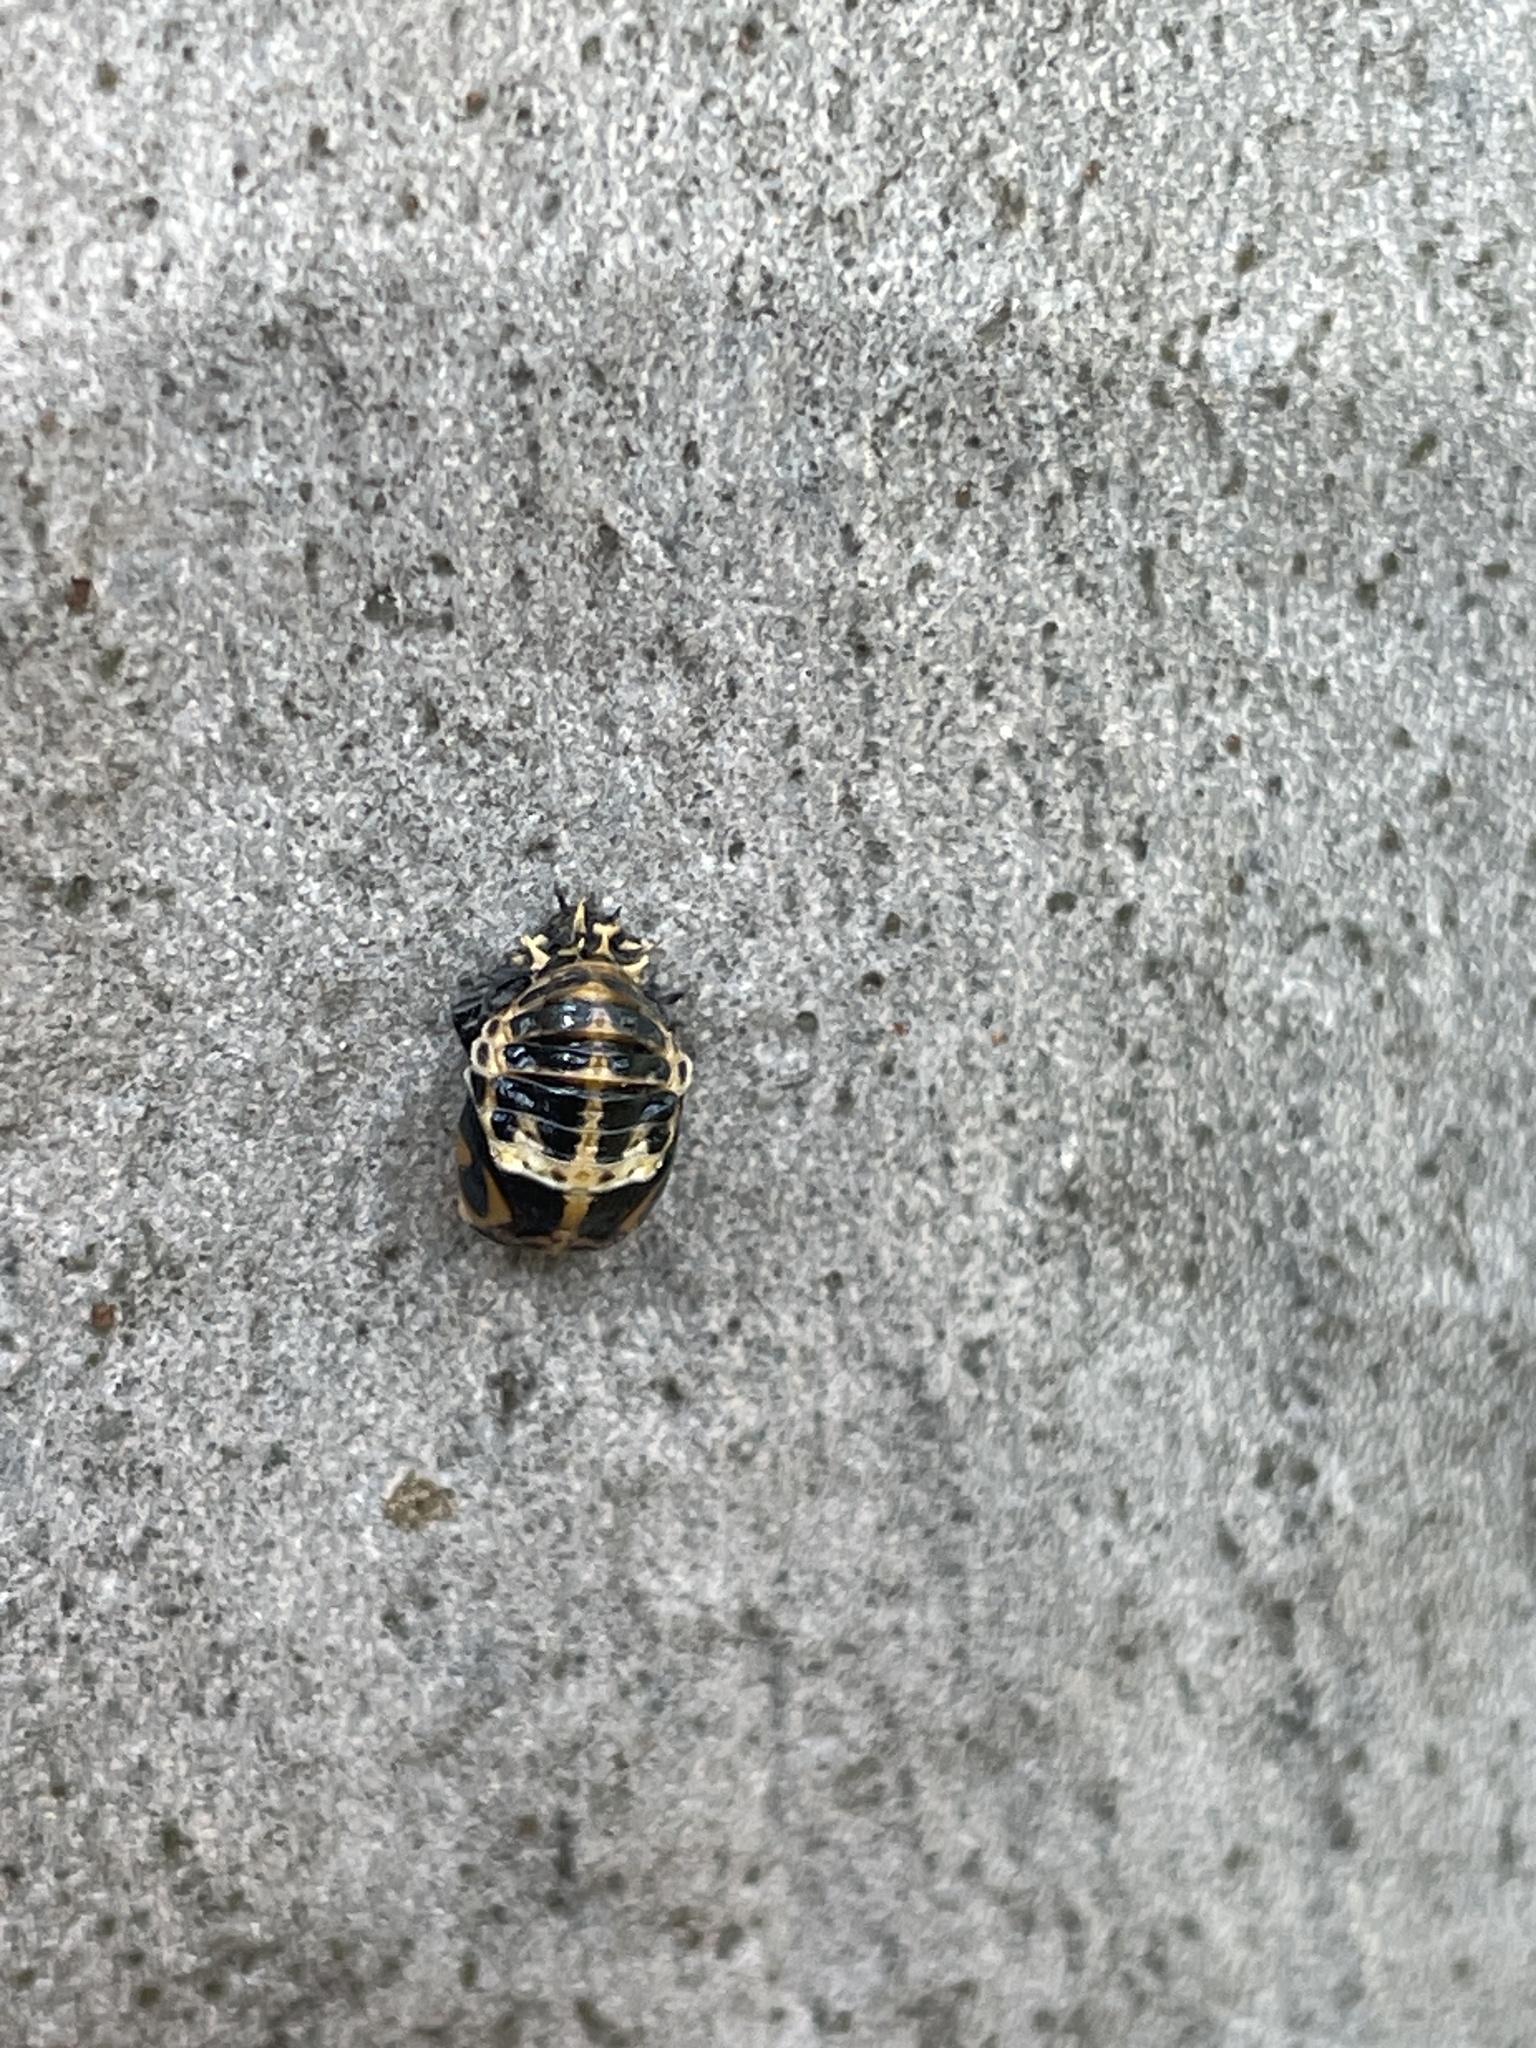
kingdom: Animalia
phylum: Arthropoda
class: Insecta
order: Coleoptera
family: Coccinellidae
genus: Harmonia
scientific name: Harmonia conformis
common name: Common spotted ladybird beetle
